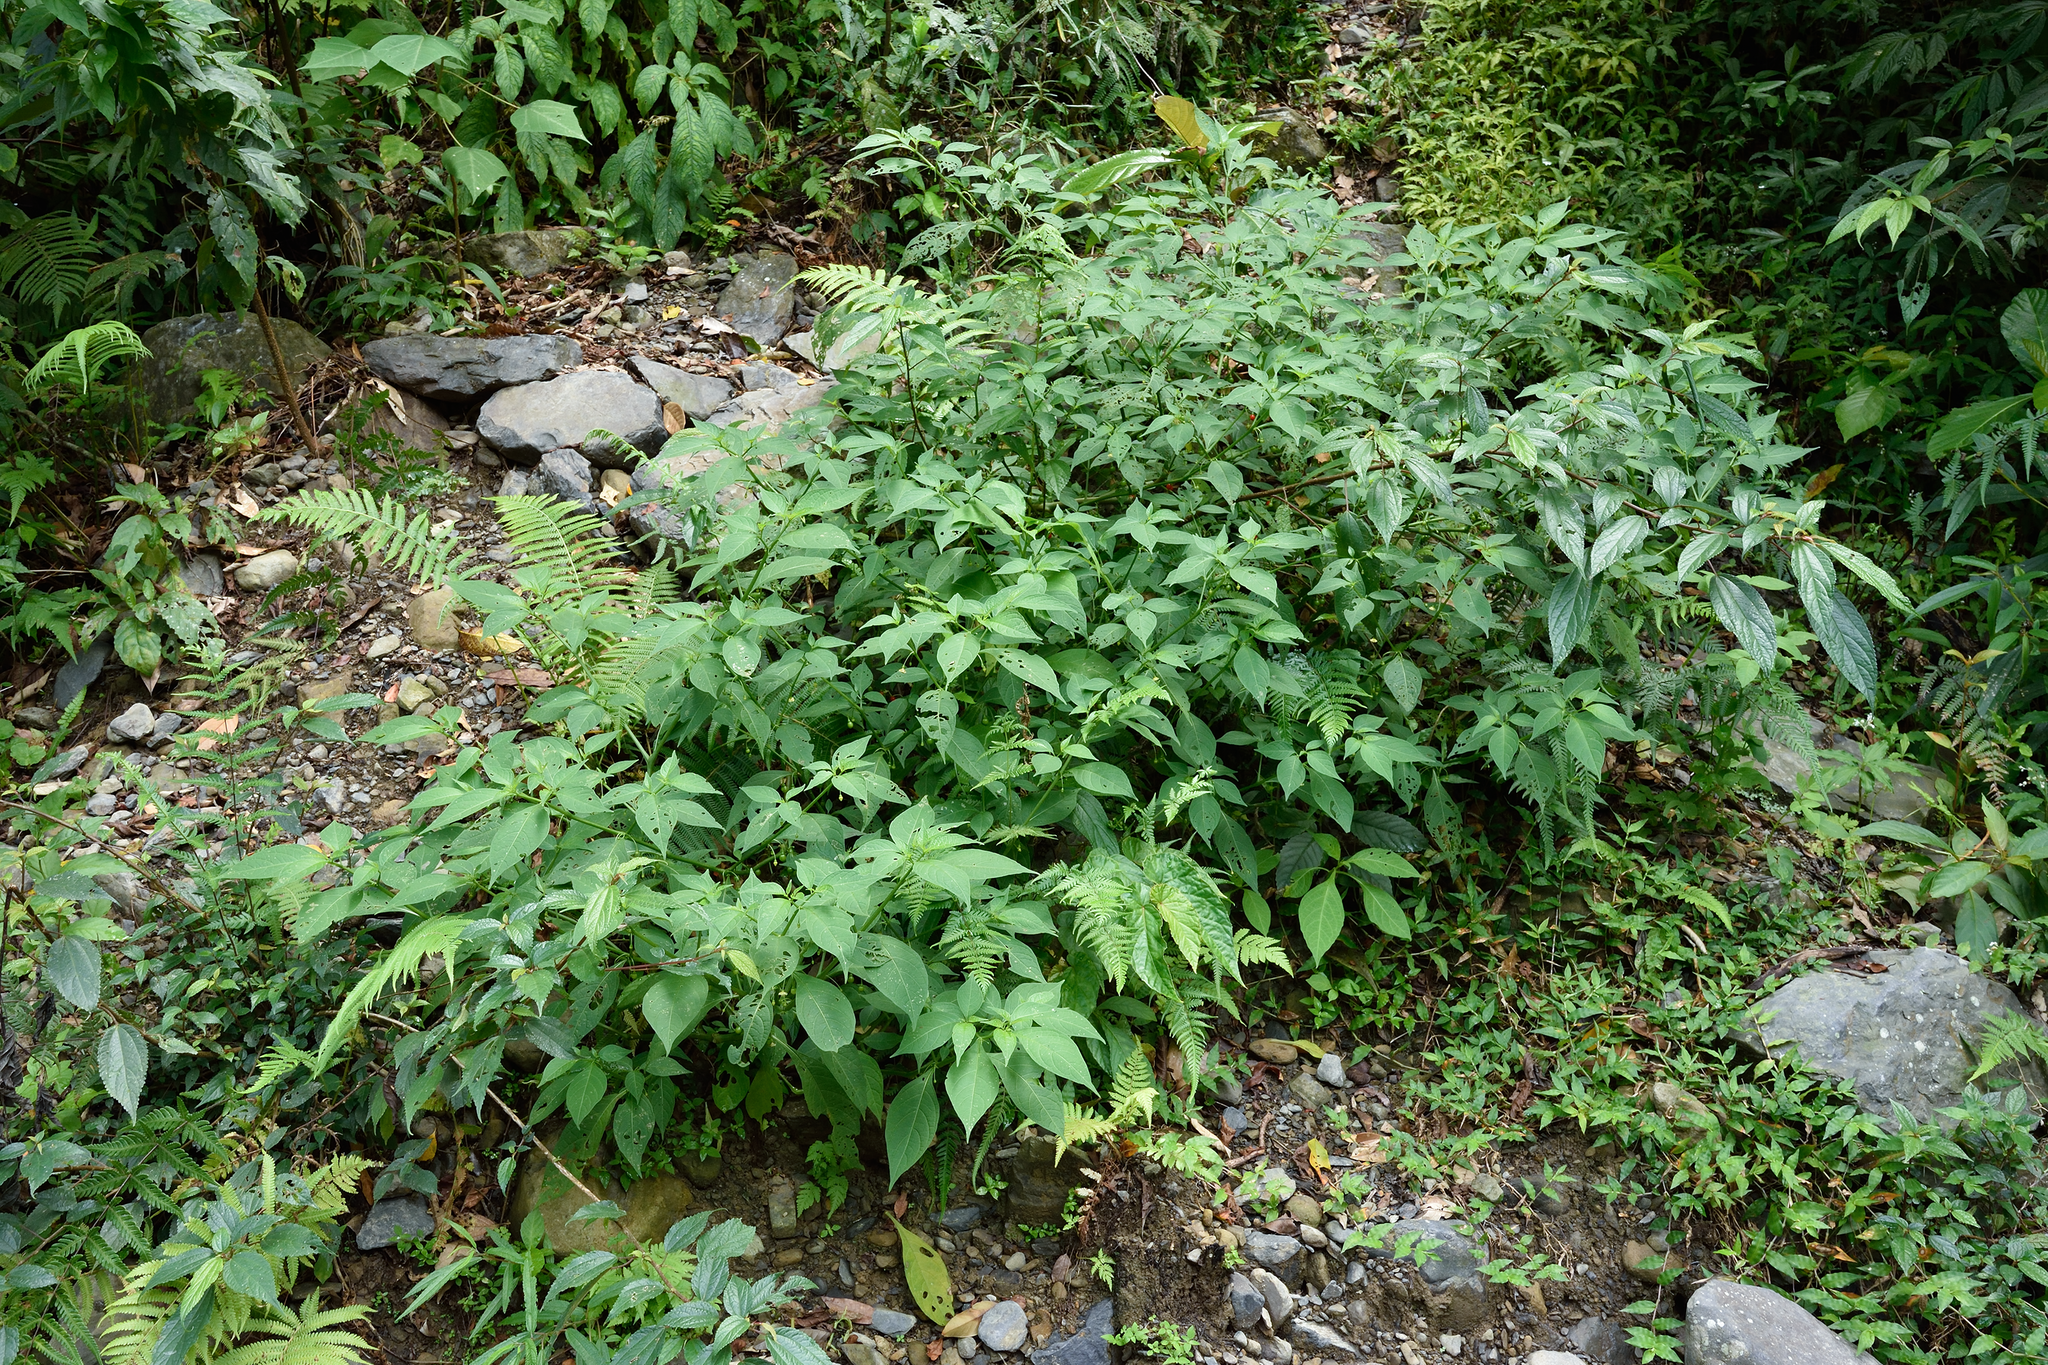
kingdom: Plantae
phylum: Tracheophyta
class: Magnoliopsida
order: Solanales
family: Solanaceae
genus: Tubocapsicum
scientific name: Tubocapsicum anomalum
